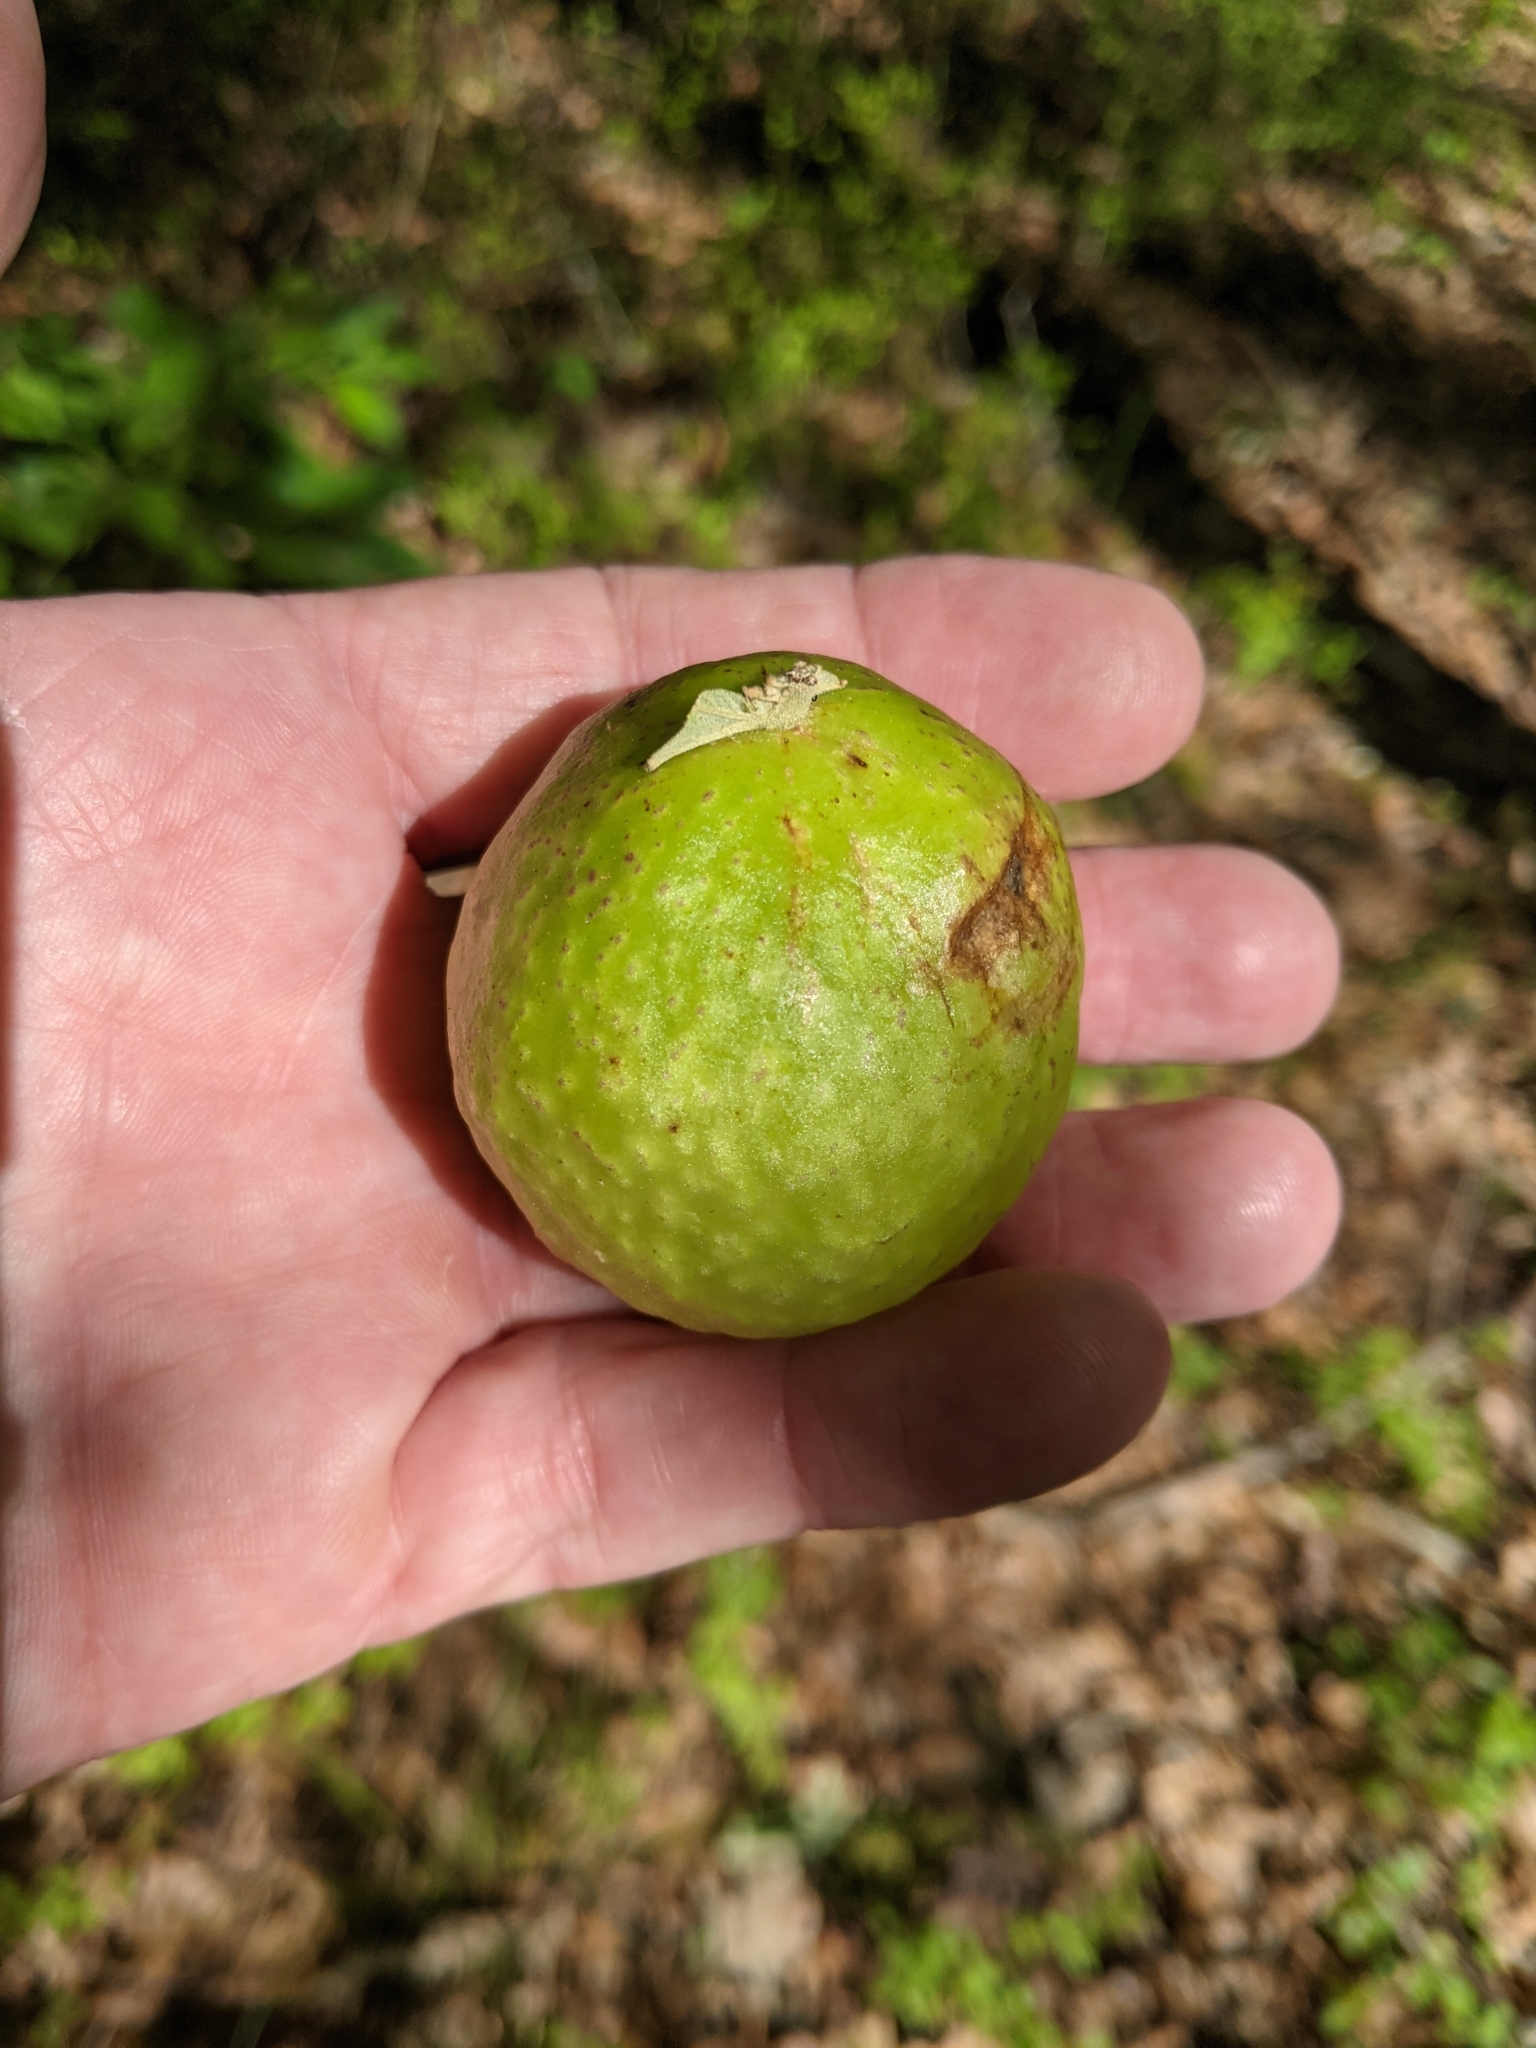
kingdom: Animalia
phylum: Arthropoda
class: Insecta
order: Hymenoptera
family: Cynipidae
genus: Amphibolips
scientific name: Amphibolips
